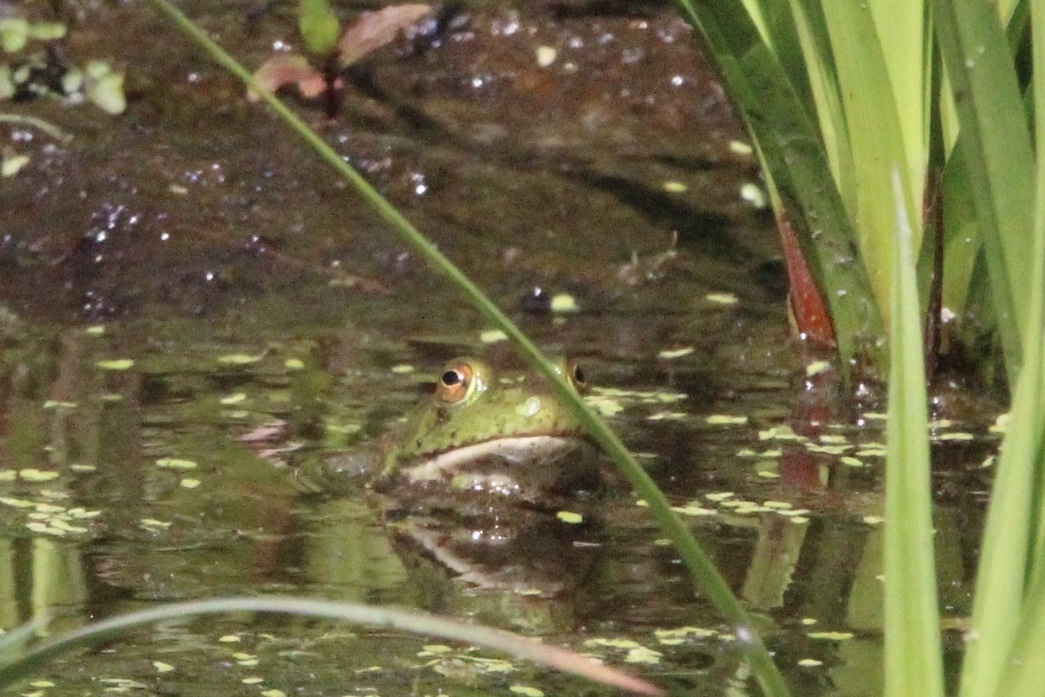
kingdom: Animalia
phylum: Chordata
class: Amphibia
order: Anura
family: Ranidae
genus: Lithobates
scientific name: Lithobates catesbeianus
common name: American bullfrog
